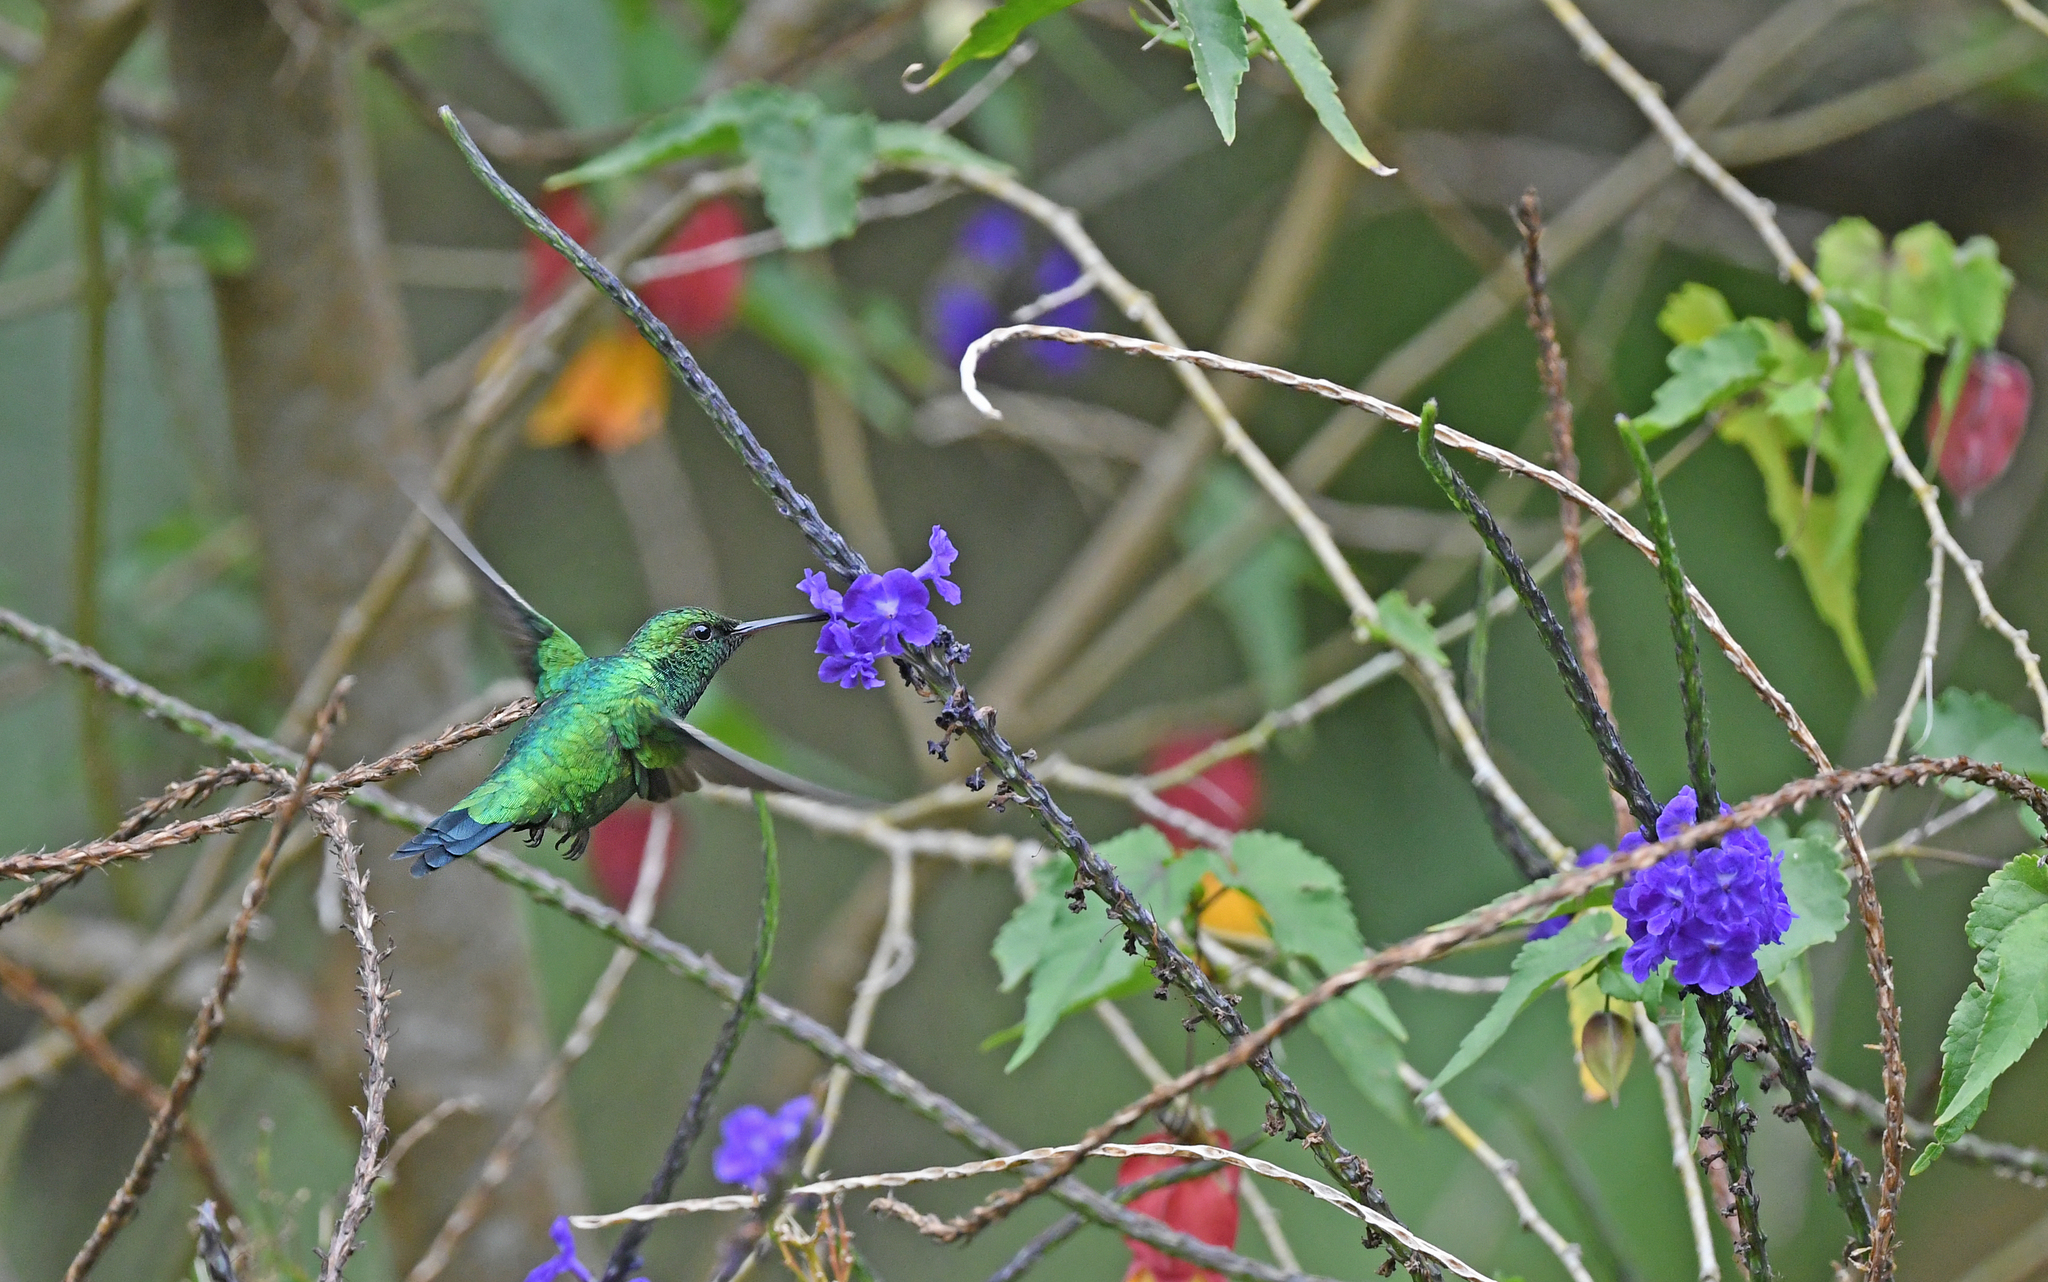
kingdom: Animalia
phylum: Chordata
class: Aves
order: Apodiformes
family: Trochilidae
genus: Chlorostilbon
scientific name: Chlorostilbon melanorhynchus
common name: Western emerald
